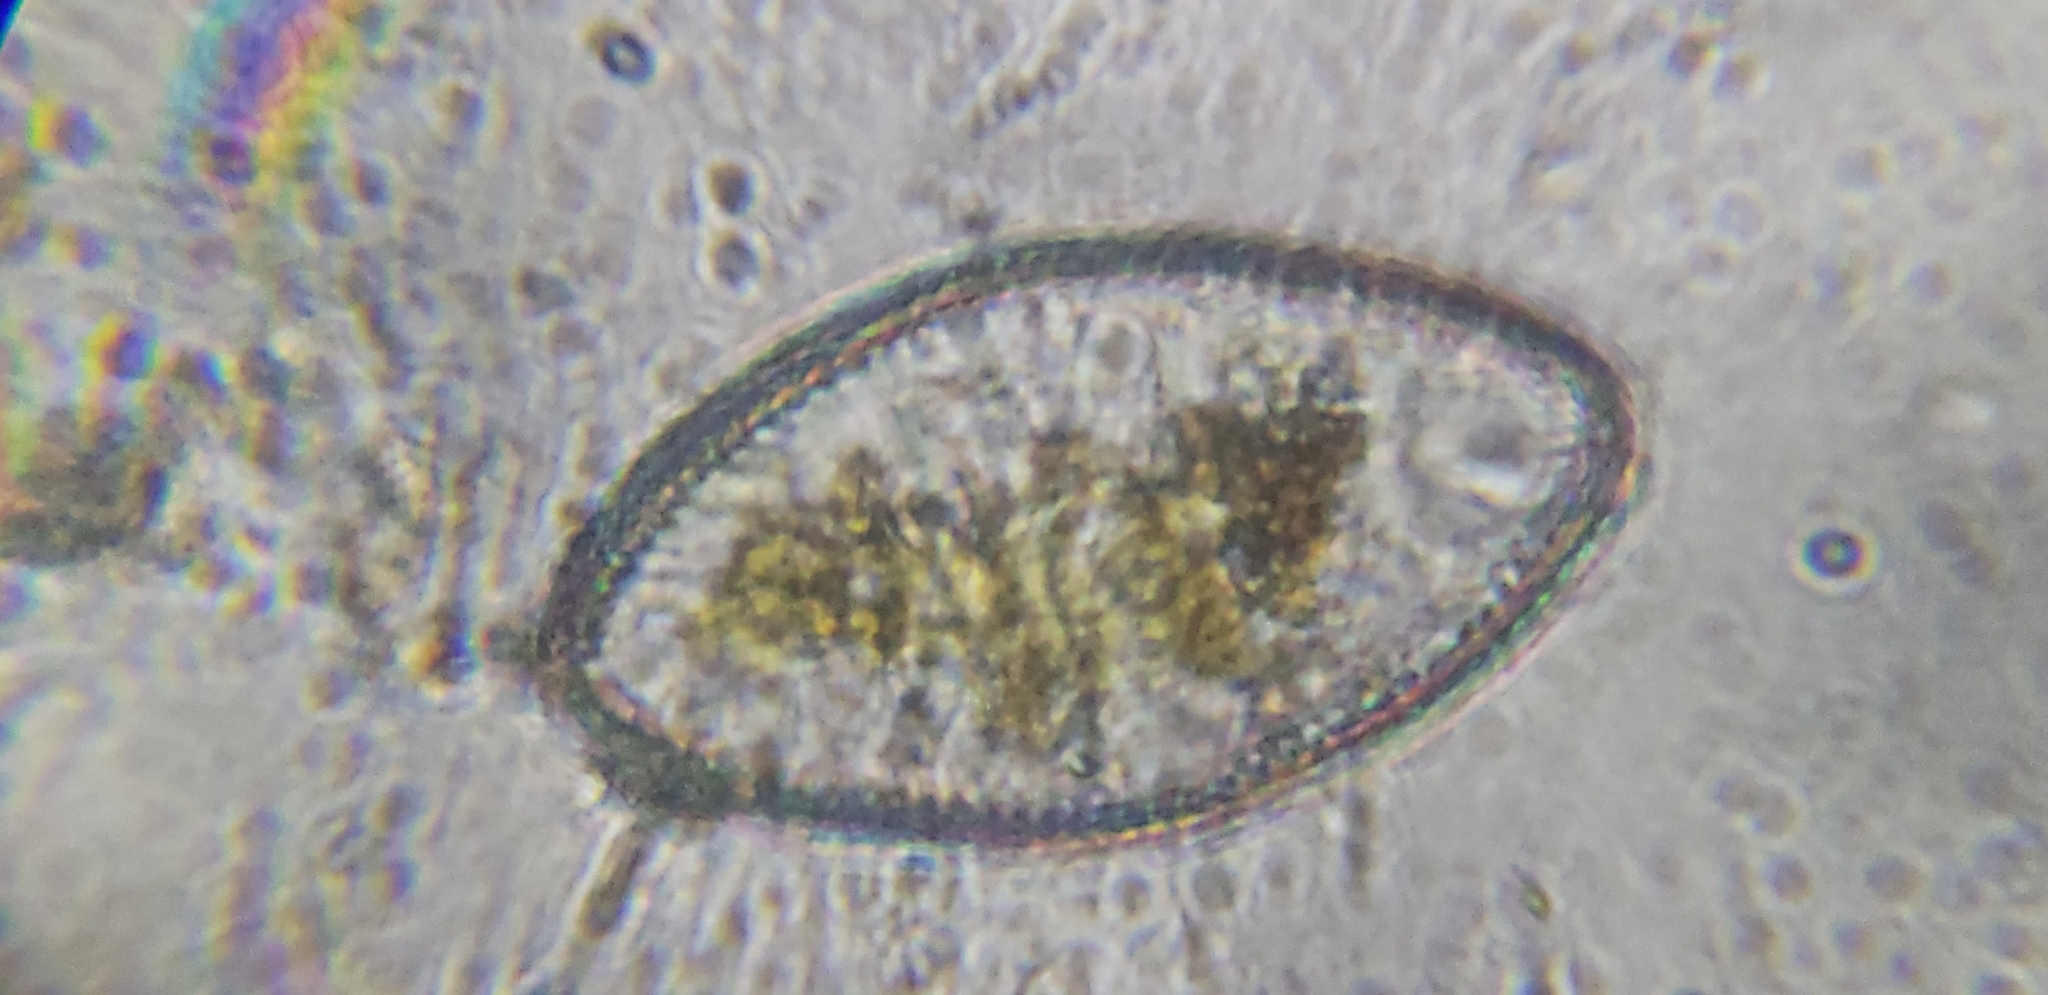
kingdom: Chromista
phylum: Ochrophyta
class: Bacillariophyceae
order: Surirellales
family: Surirellaceae
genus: Surirella
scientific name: Surirella undulata
